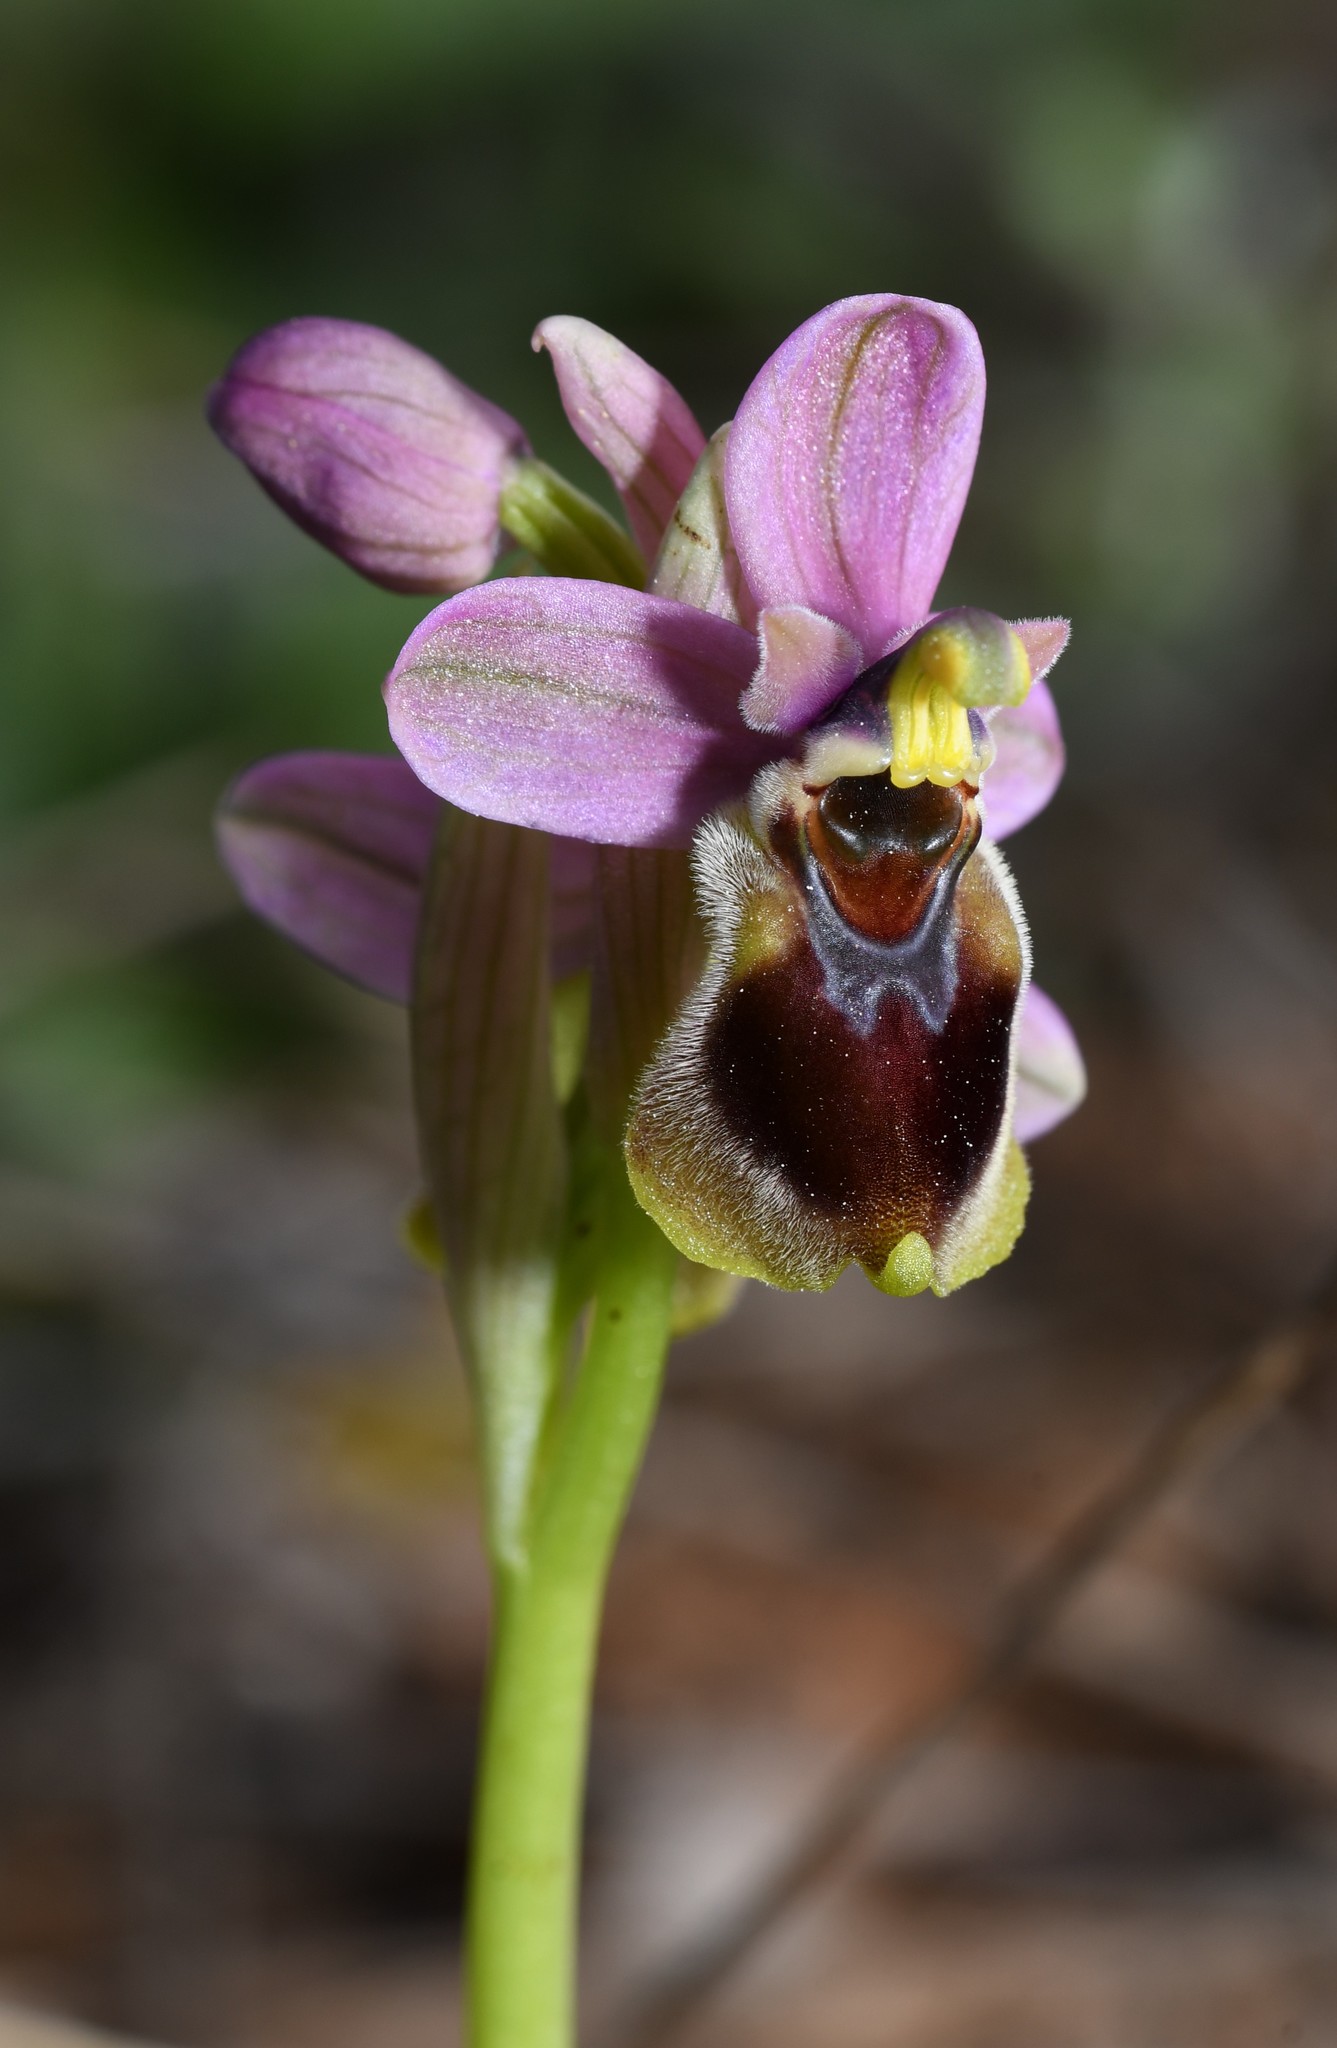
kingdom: Plantae
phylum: Tracheophyta
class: Liliopsida
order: Asparagales
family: Orchidaceae
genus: Ophrys
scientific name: Ophrys tenthredinifera
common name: Sawfly orchid
